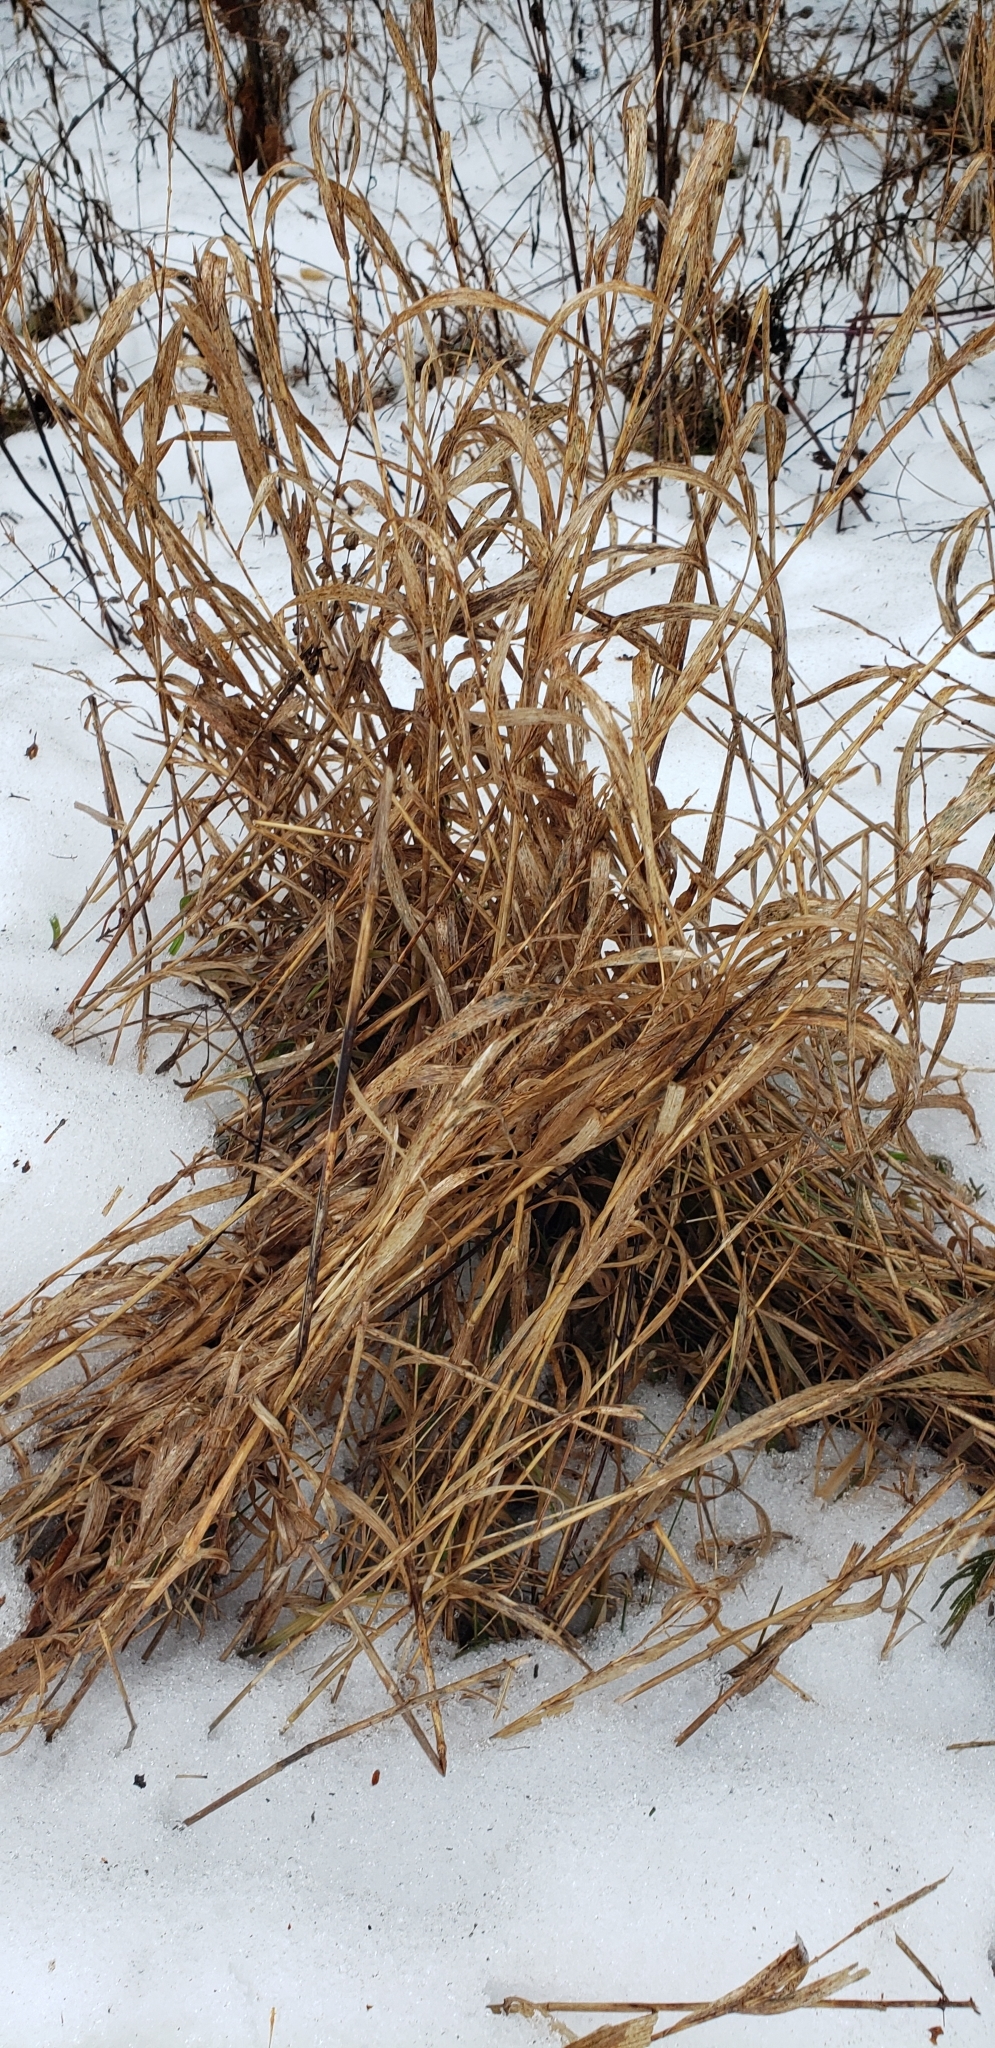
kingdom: Plantae
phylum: Tracheophyta
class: Liliopsida
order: Poales
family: Poaceae
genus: Phalaris
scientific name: Phalaris arundinacea
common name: Reed canary-grass
